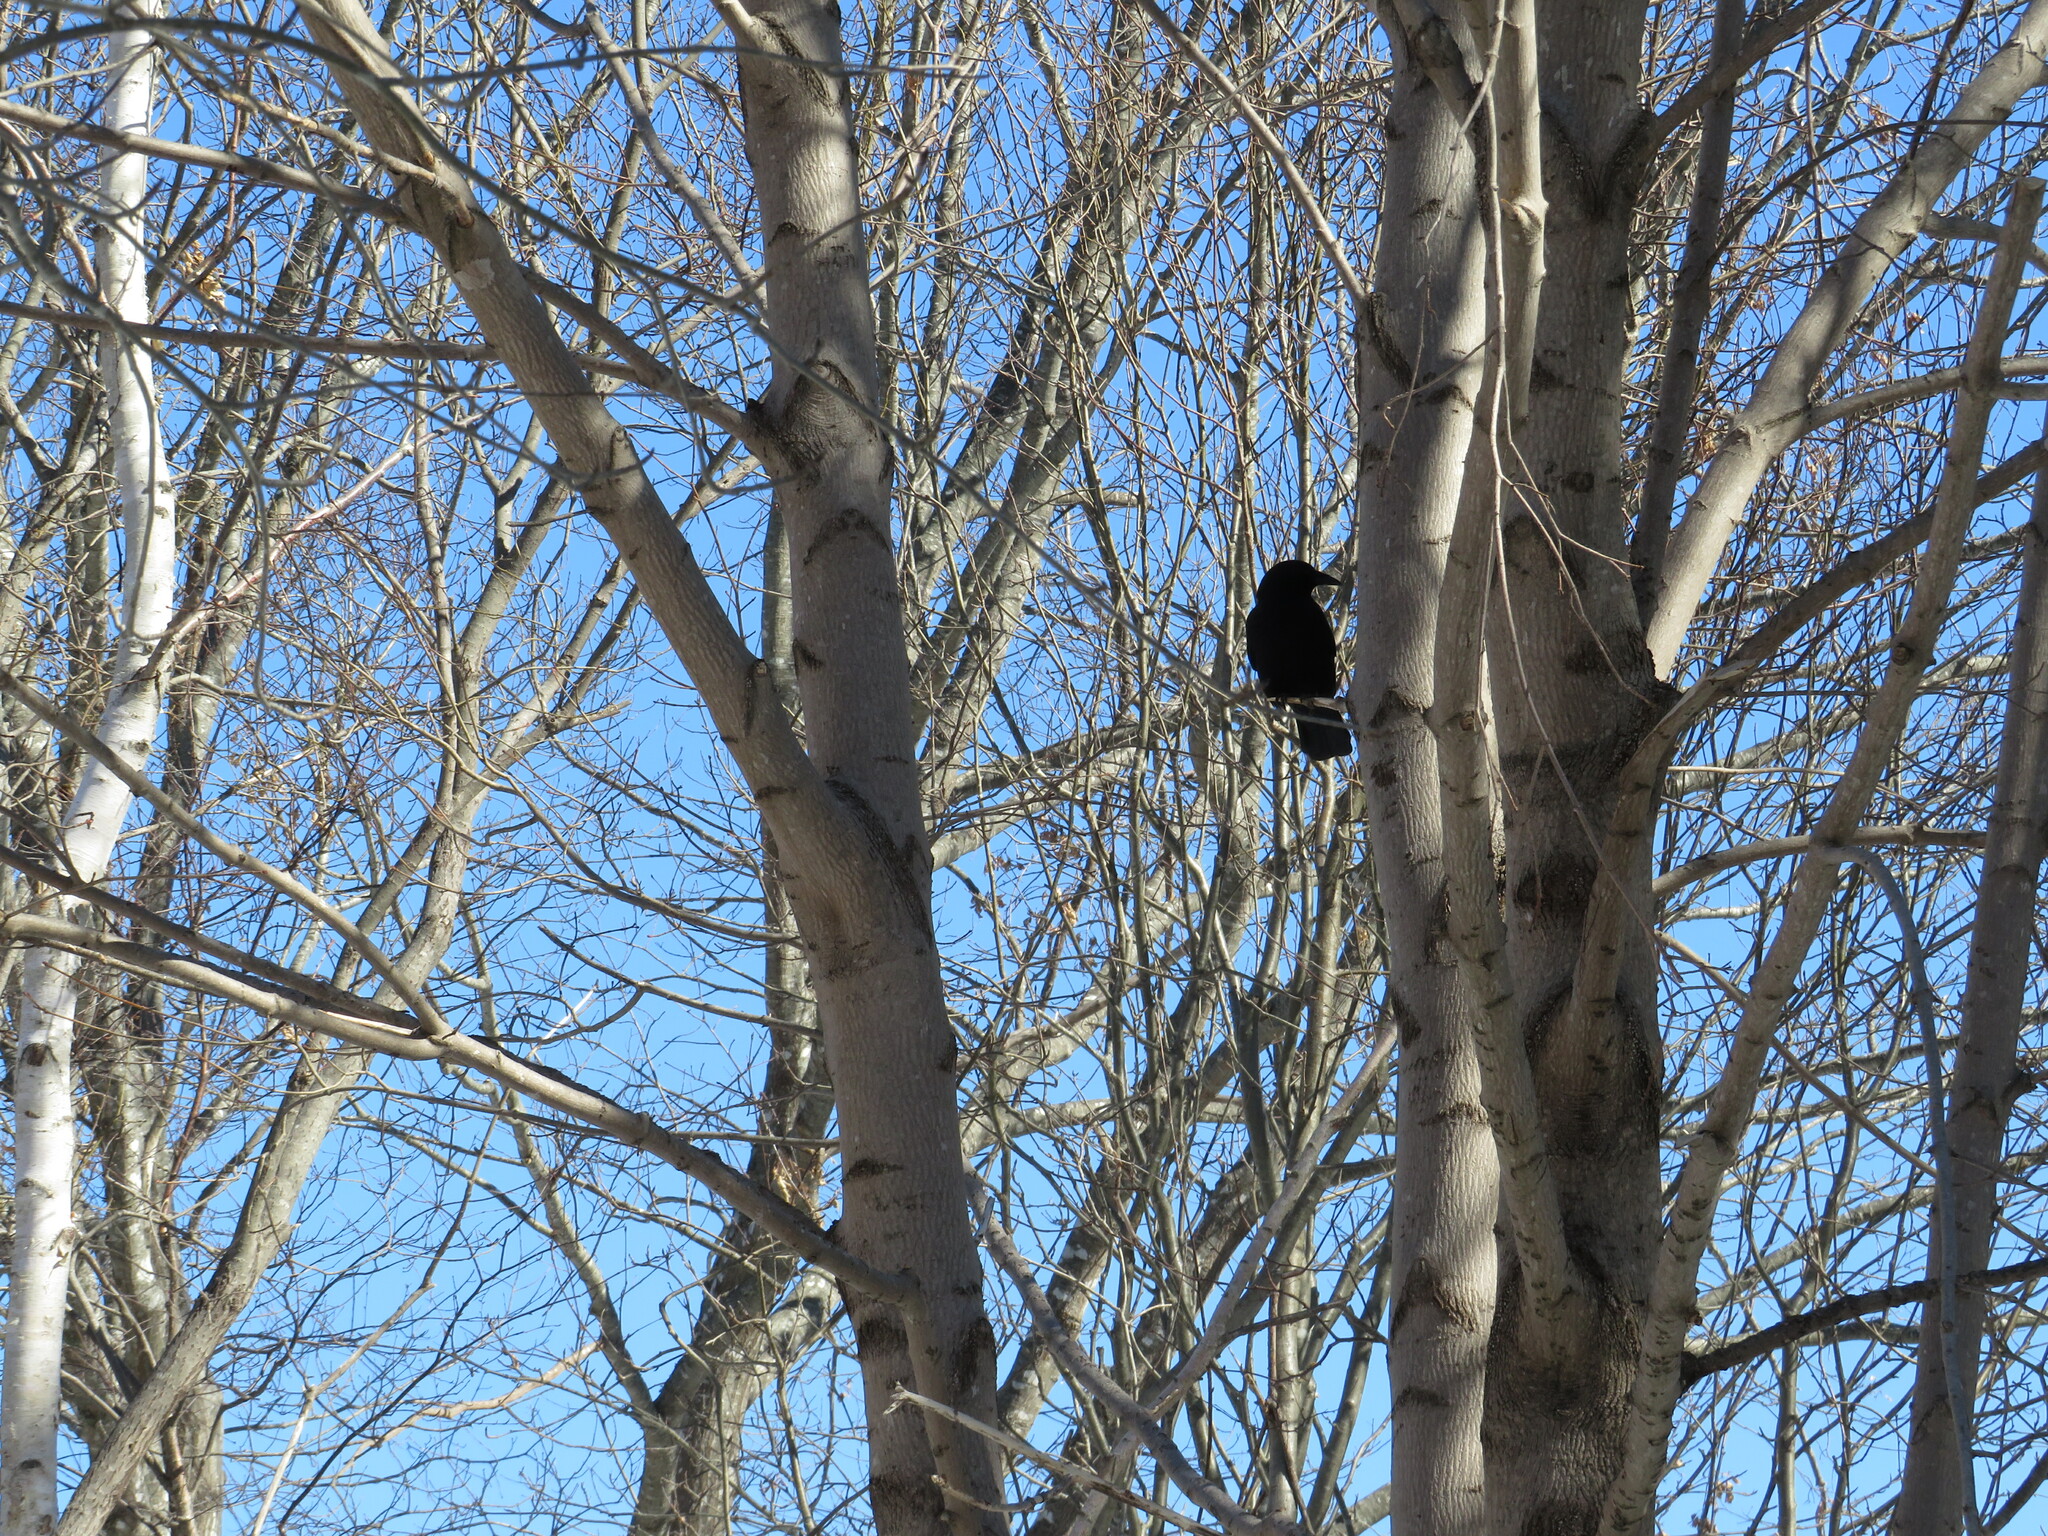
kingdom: Animalia
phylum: Chordata
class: Aves
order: Passeriformes
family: Corvidae
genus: Corvus
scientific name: Corvus brachyrhynchos
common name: American crow
